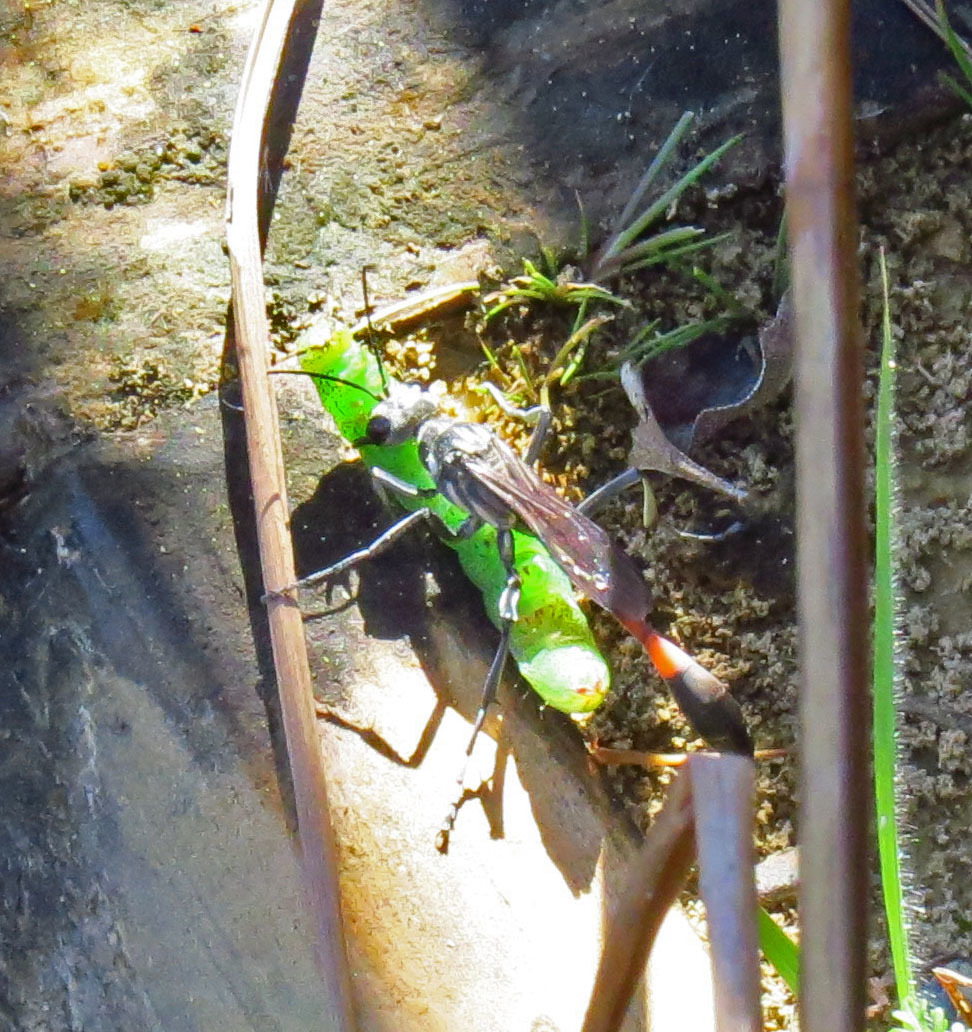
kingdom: Animalia
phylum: Arthropoda
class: Insecta
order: Hymenoptera
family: Sphecidae
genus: Ammophila
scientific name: Ammophila procera
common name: Common thread-waisted wasp
